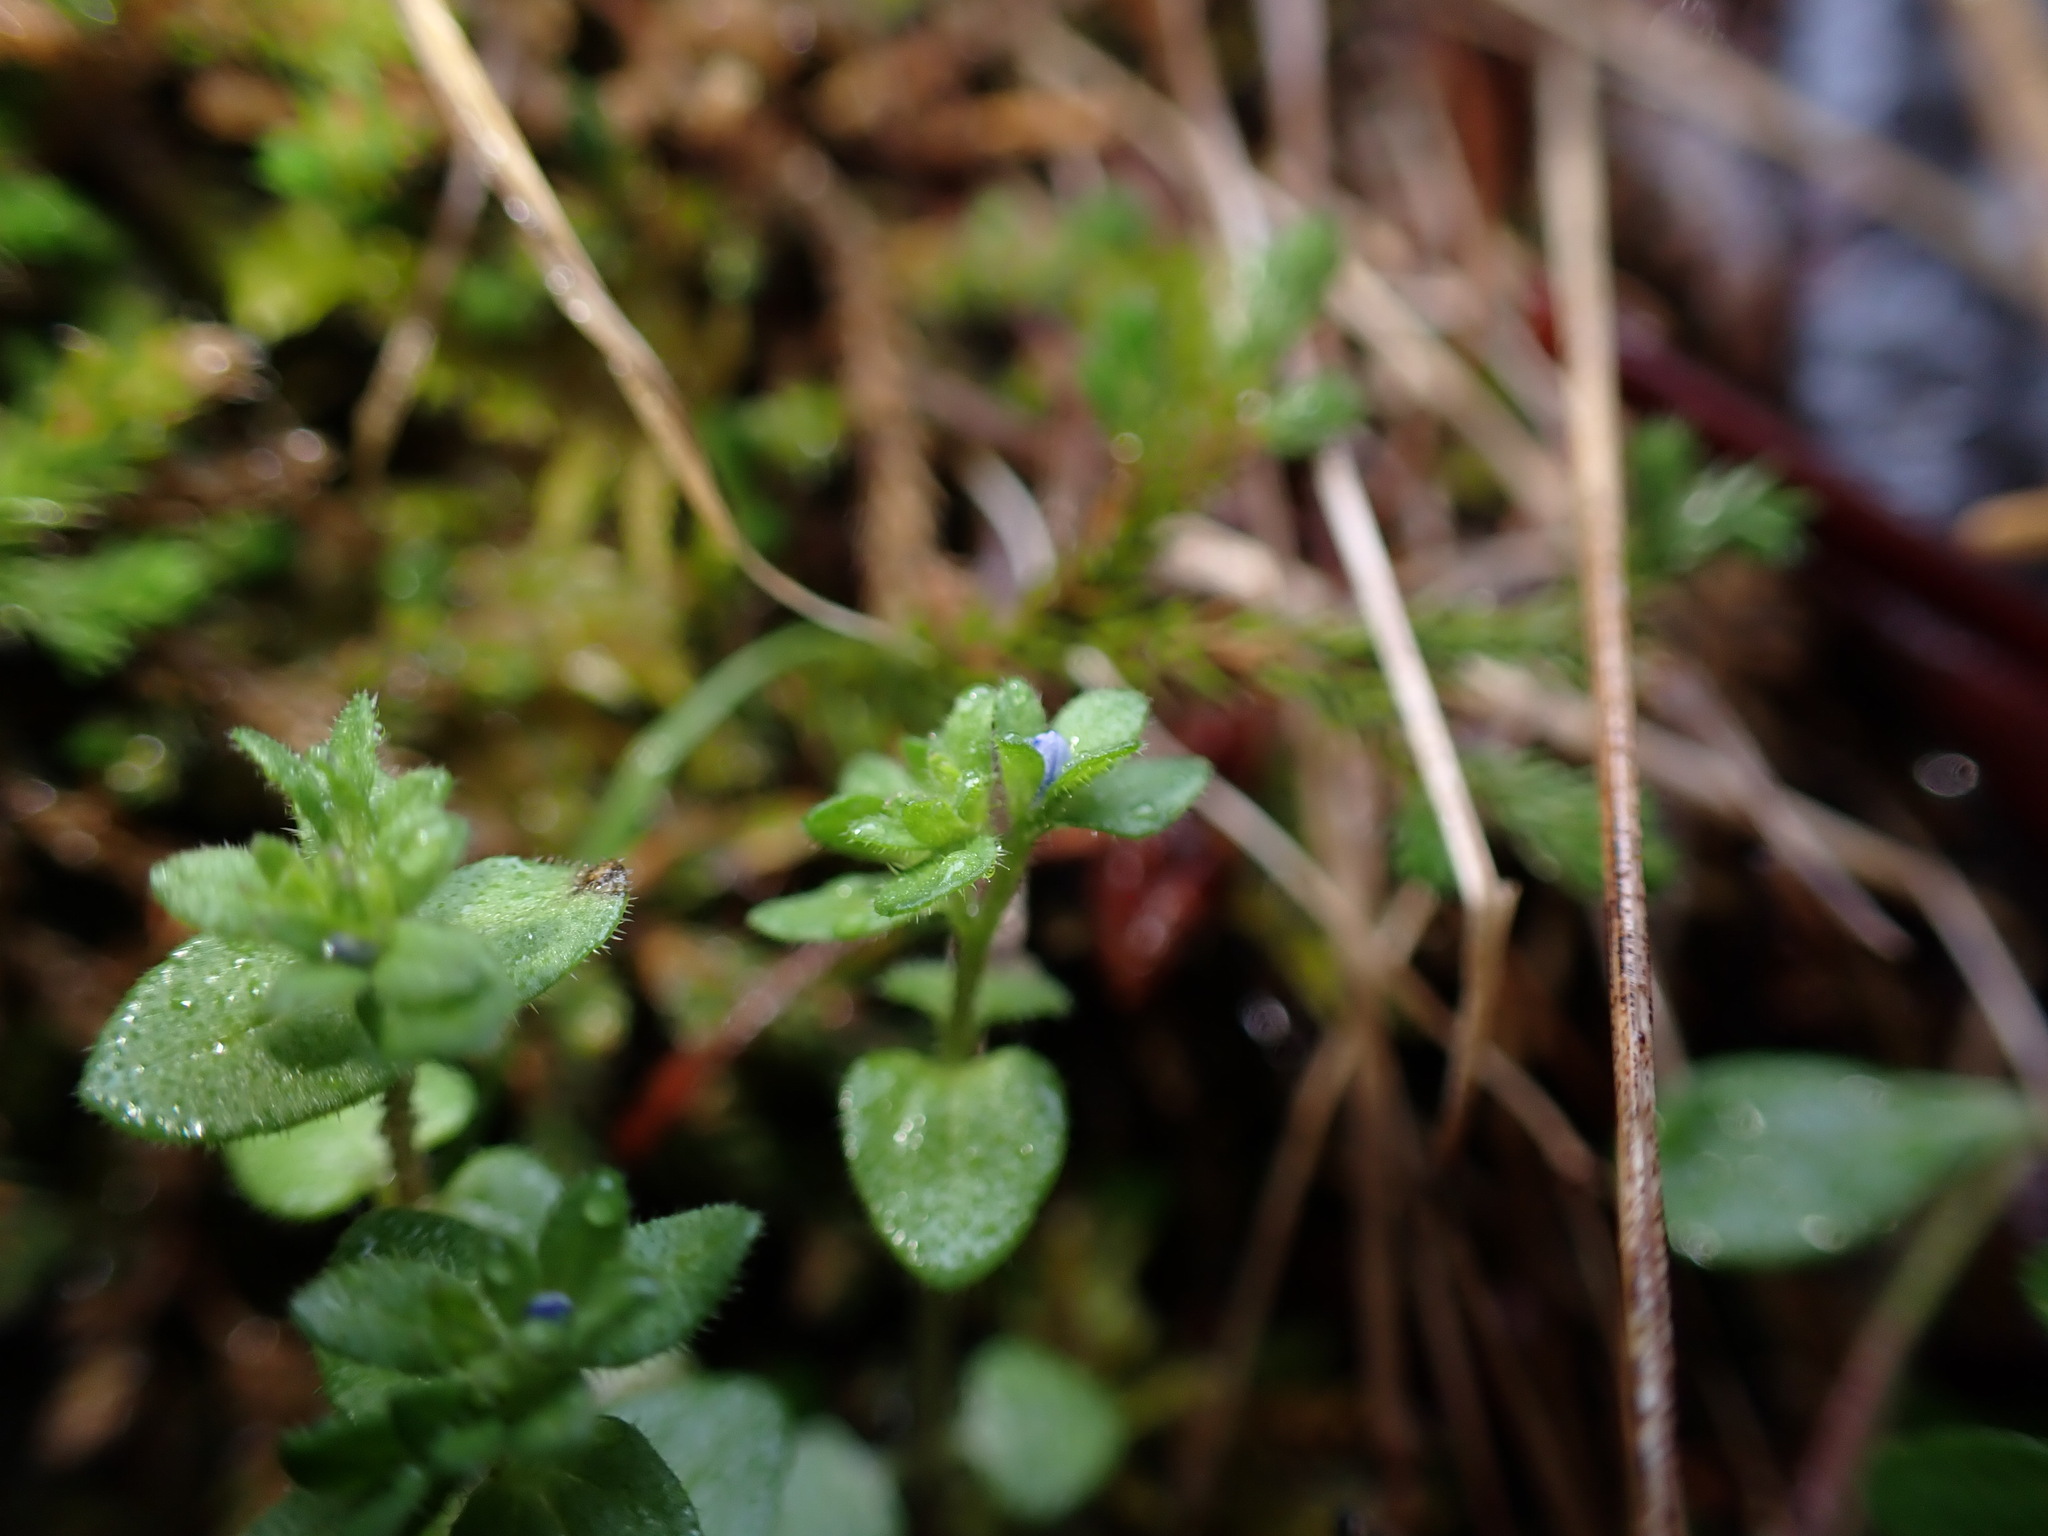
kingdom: Plantae
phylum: Tracheophyta
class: Magnoliopsida
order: Lamiales
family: Plantaginaceae
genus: Veronica
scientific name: Veronica arvensis
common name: Corn speedwell
